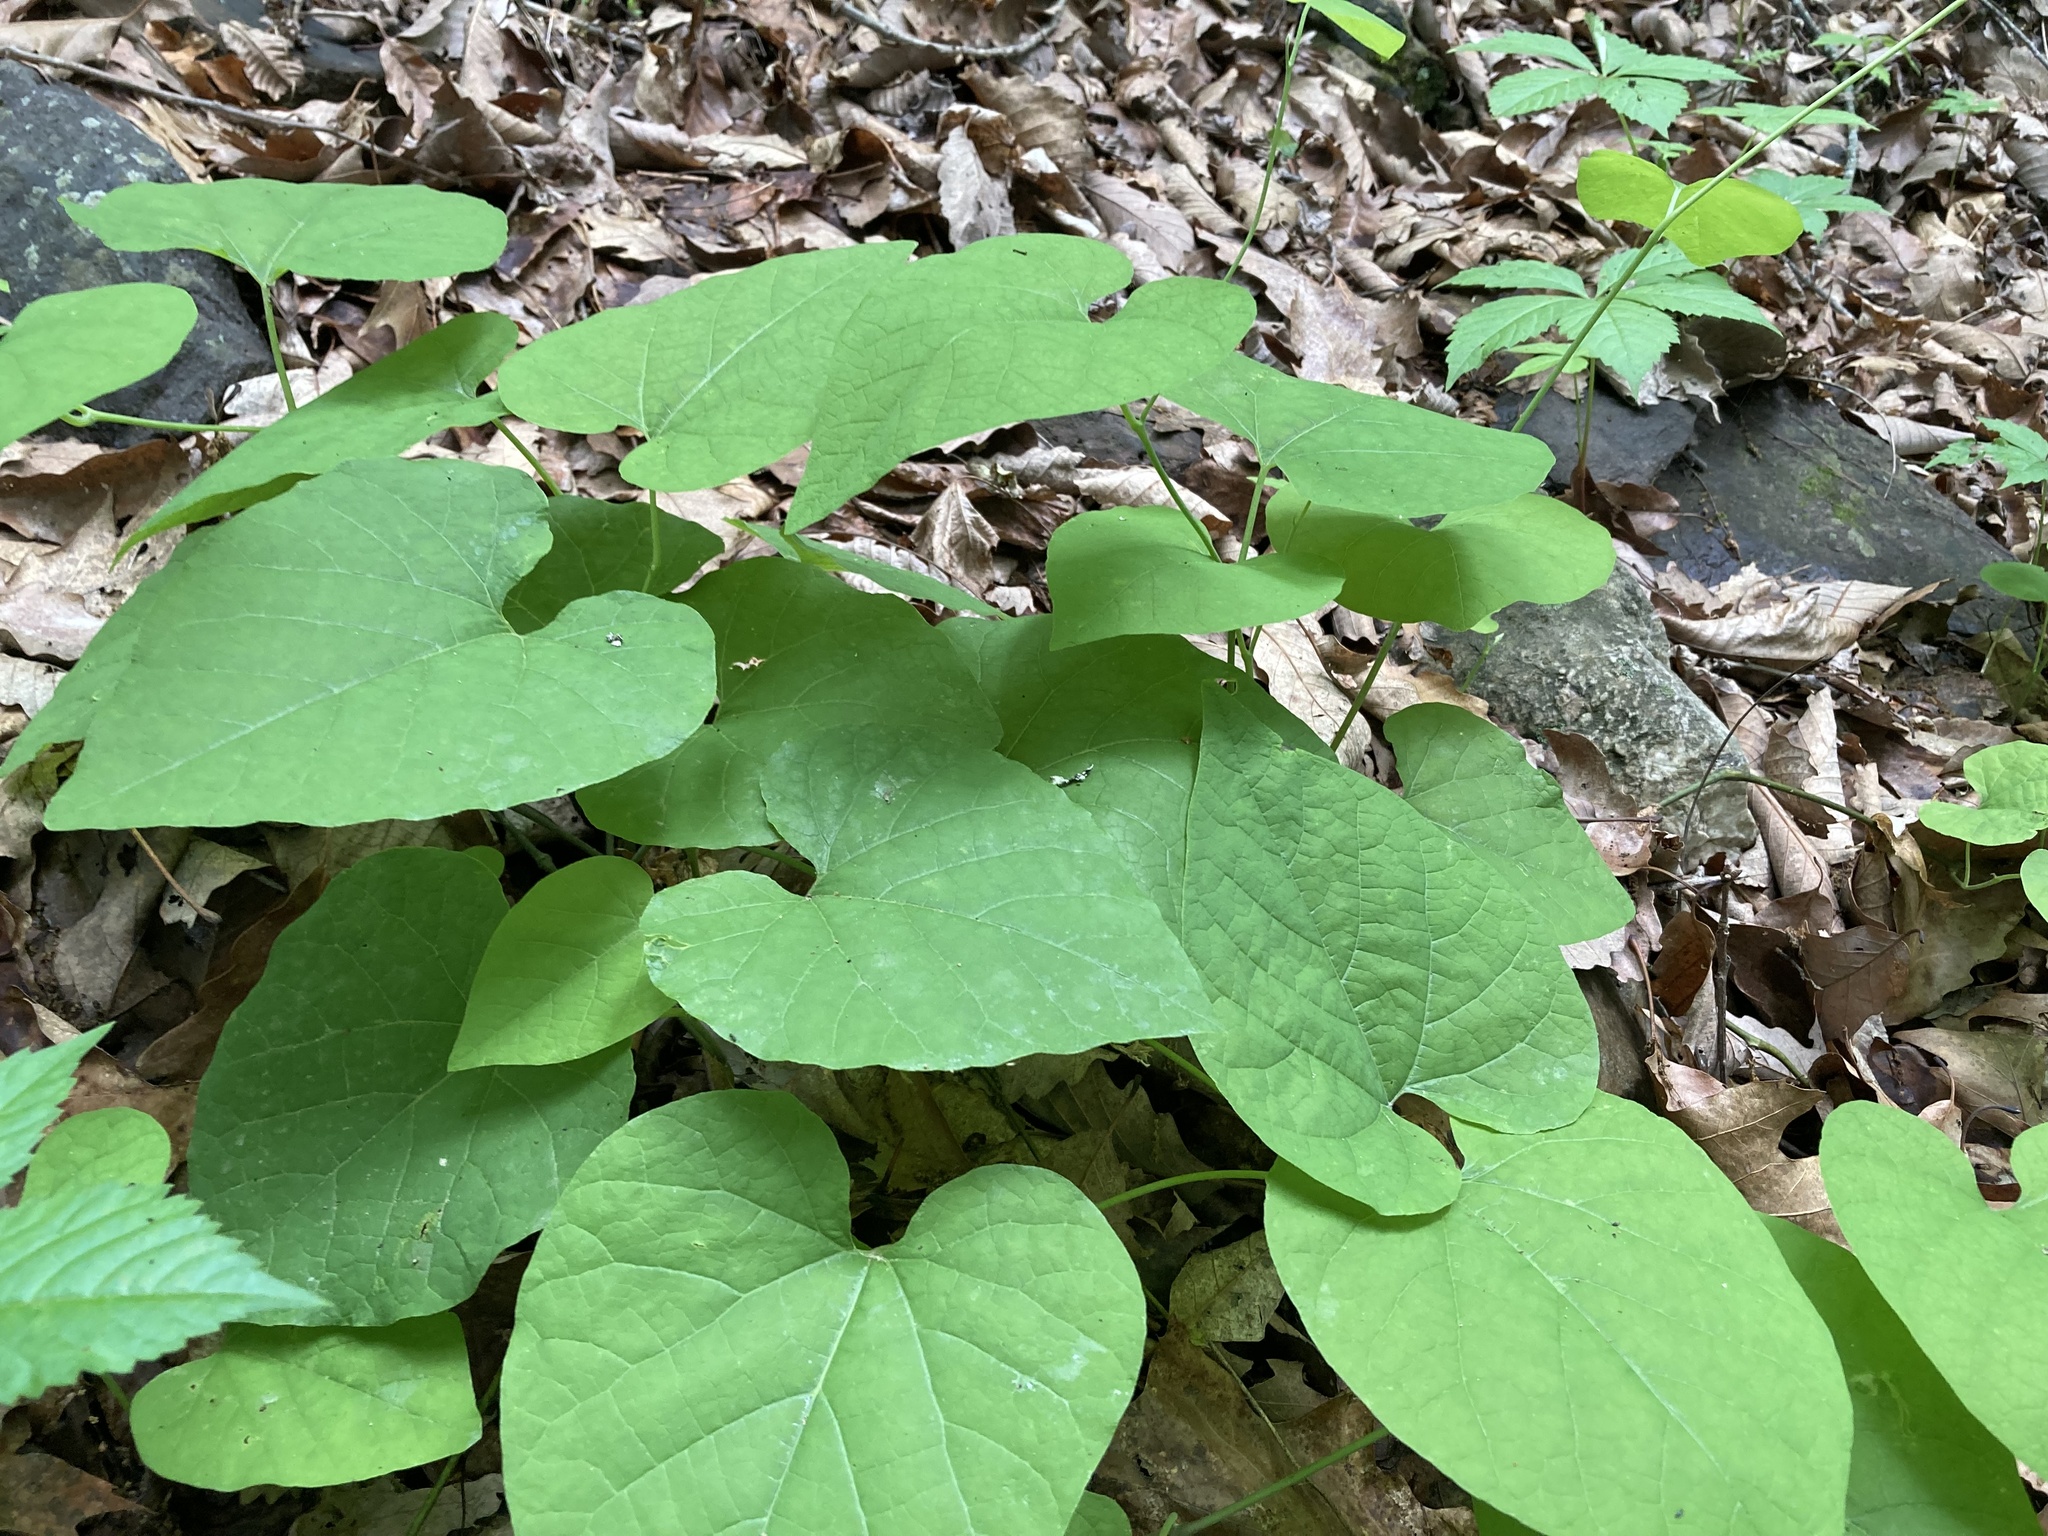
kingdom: Plantae
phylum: Tracheophyta
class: Magnoliopsida
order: Piperales
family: Aristolochiaceae
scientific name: Aristolochiaceae
